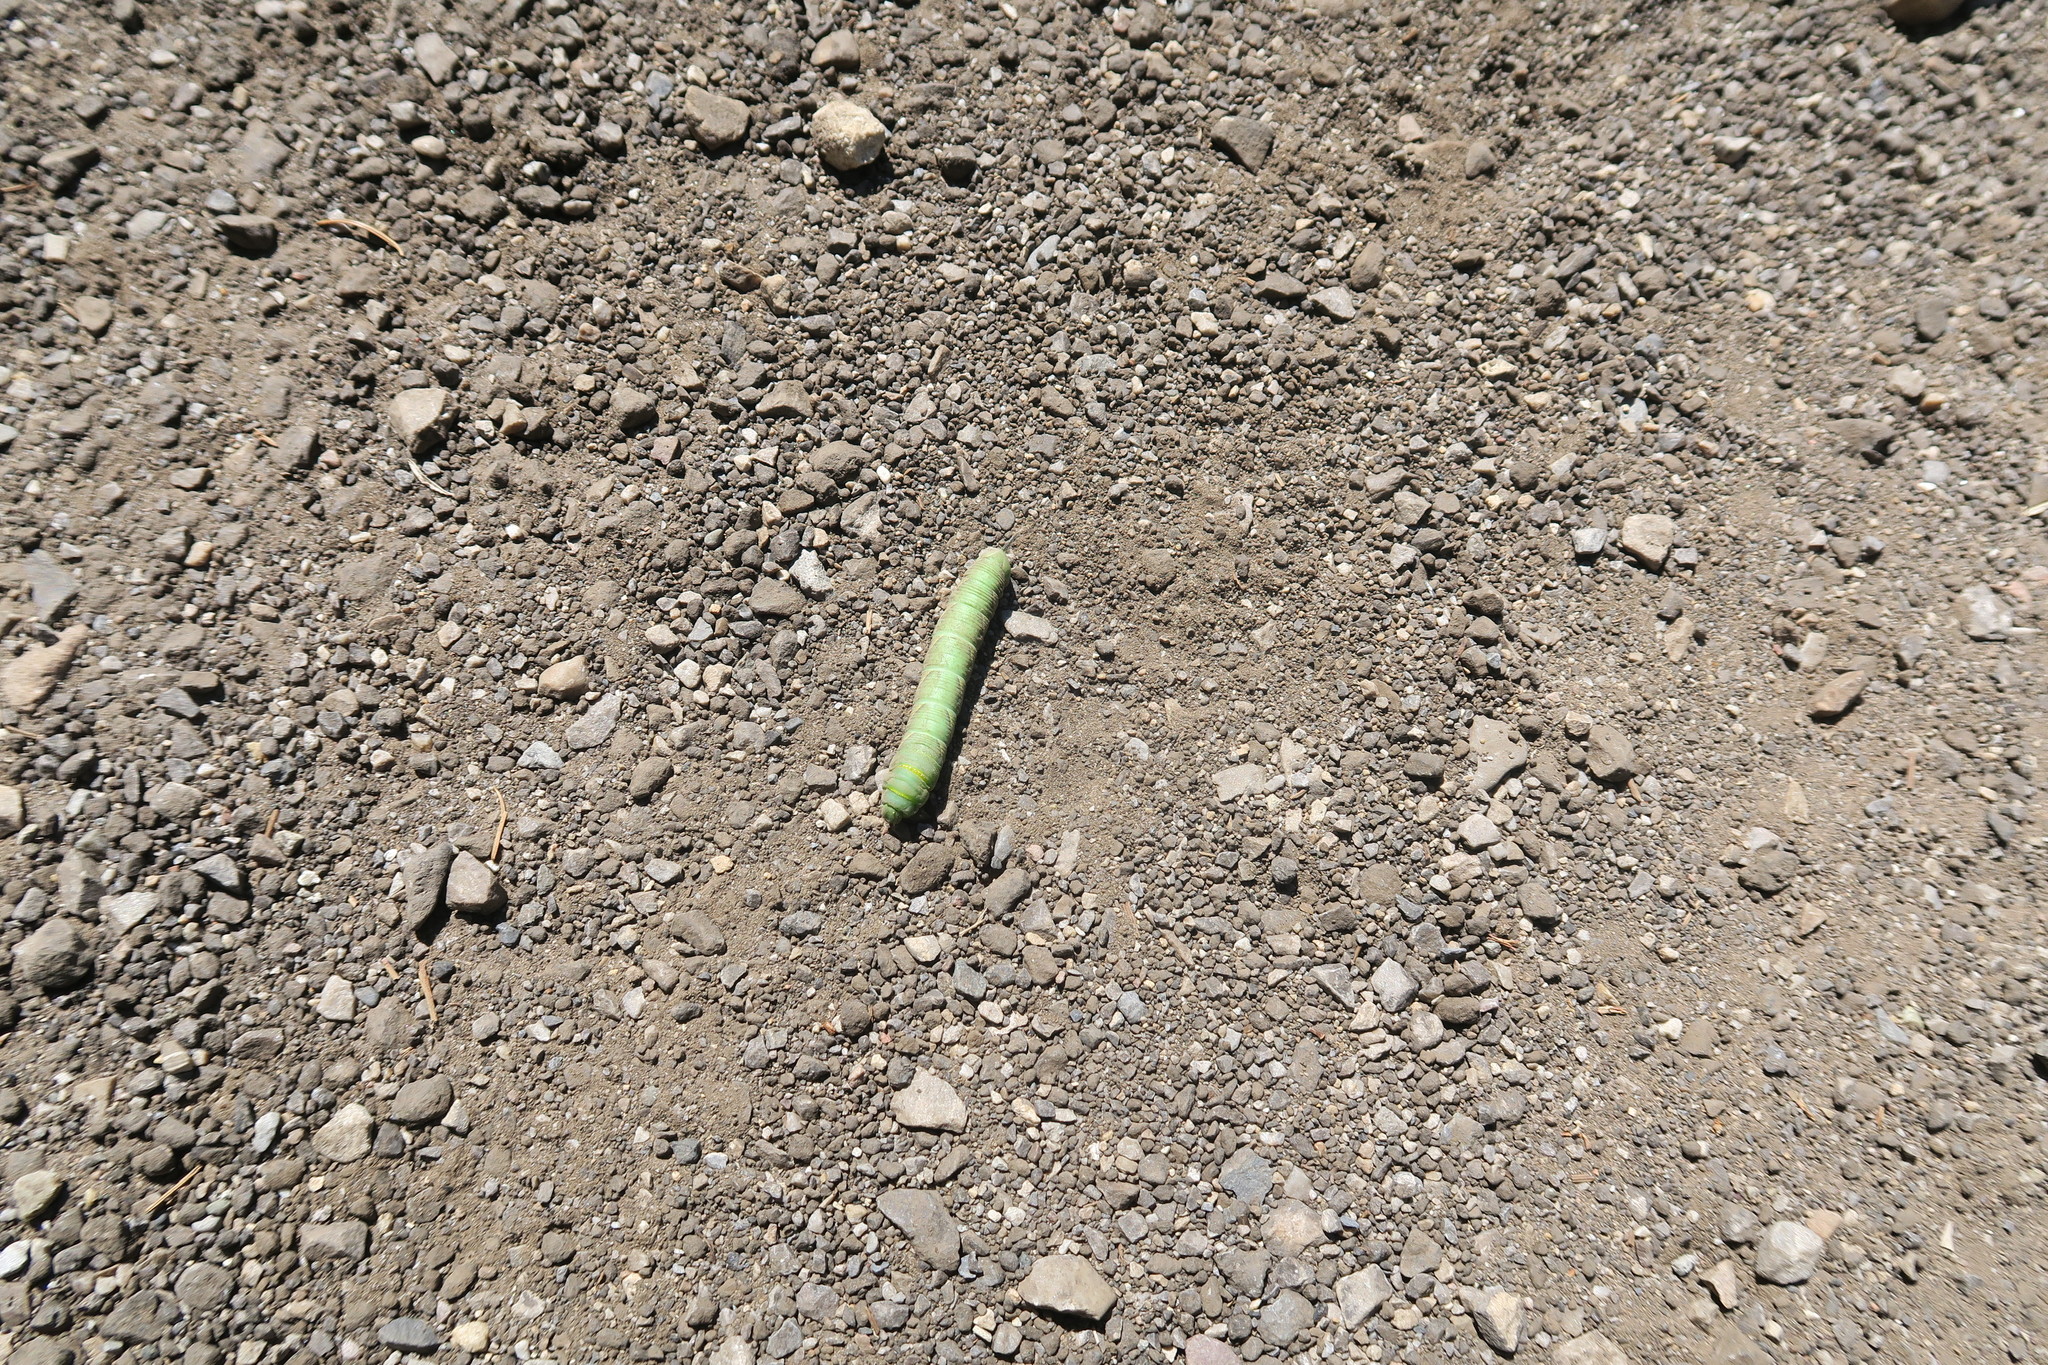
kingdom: Animalia
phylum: Arthropoda
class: Insecta
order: Lepidoptera
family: Sphingidae
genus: Sphinx
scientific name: Sphinx vashti
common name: Snowberry sphinx
